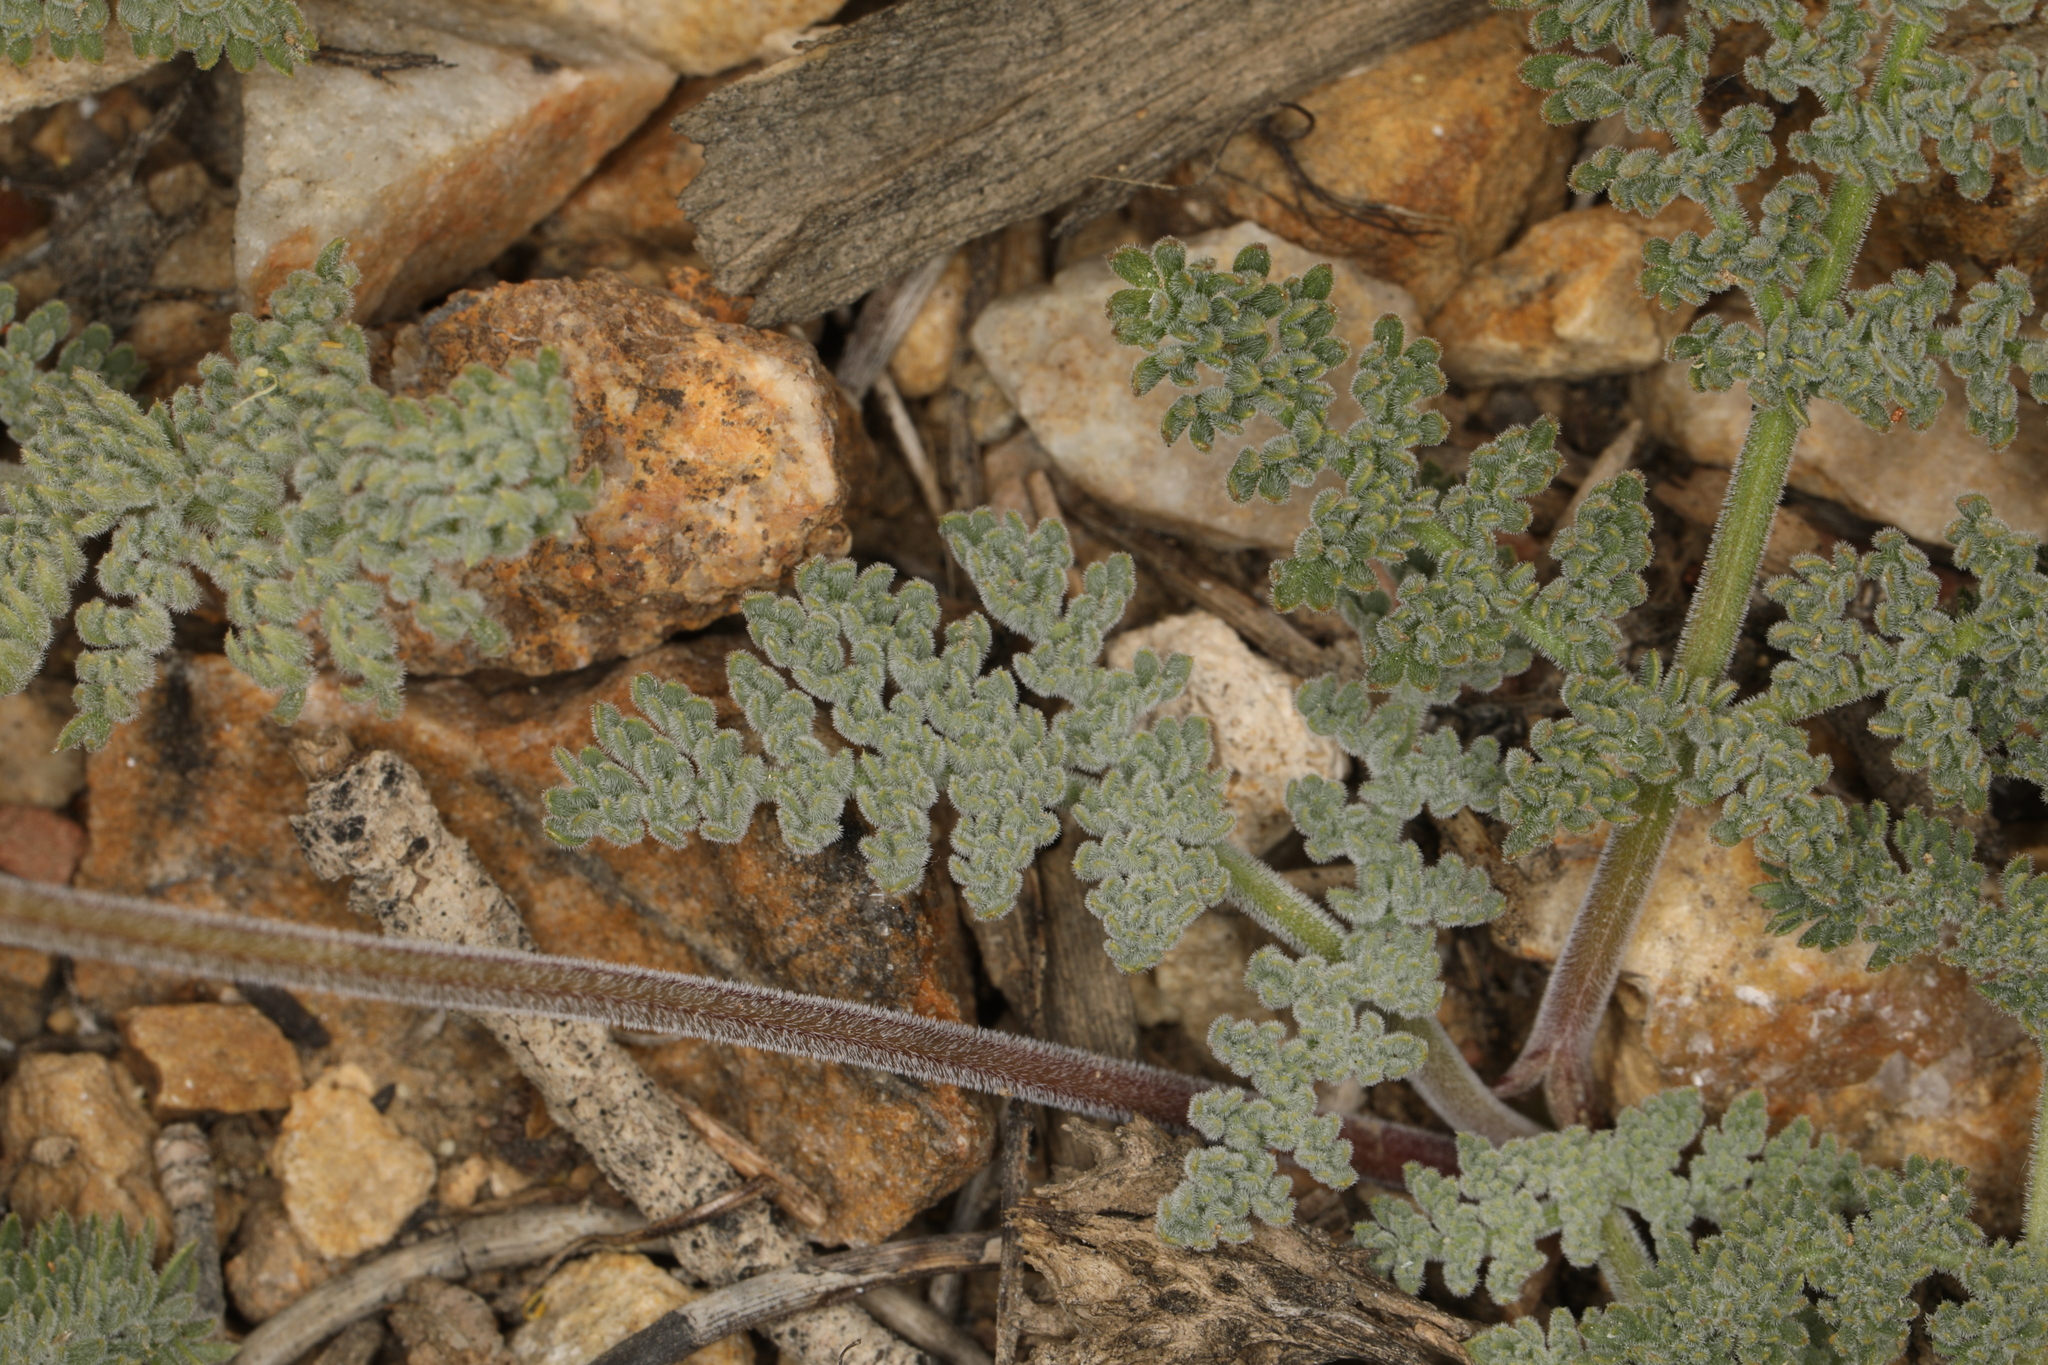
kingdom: Plantae
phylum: Tracheophyta
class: Magnoliopsida
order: Apiales
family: Apiaceae
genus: Lomatium
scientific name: Lomatium foeniculaceum
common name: Desert-parsley
